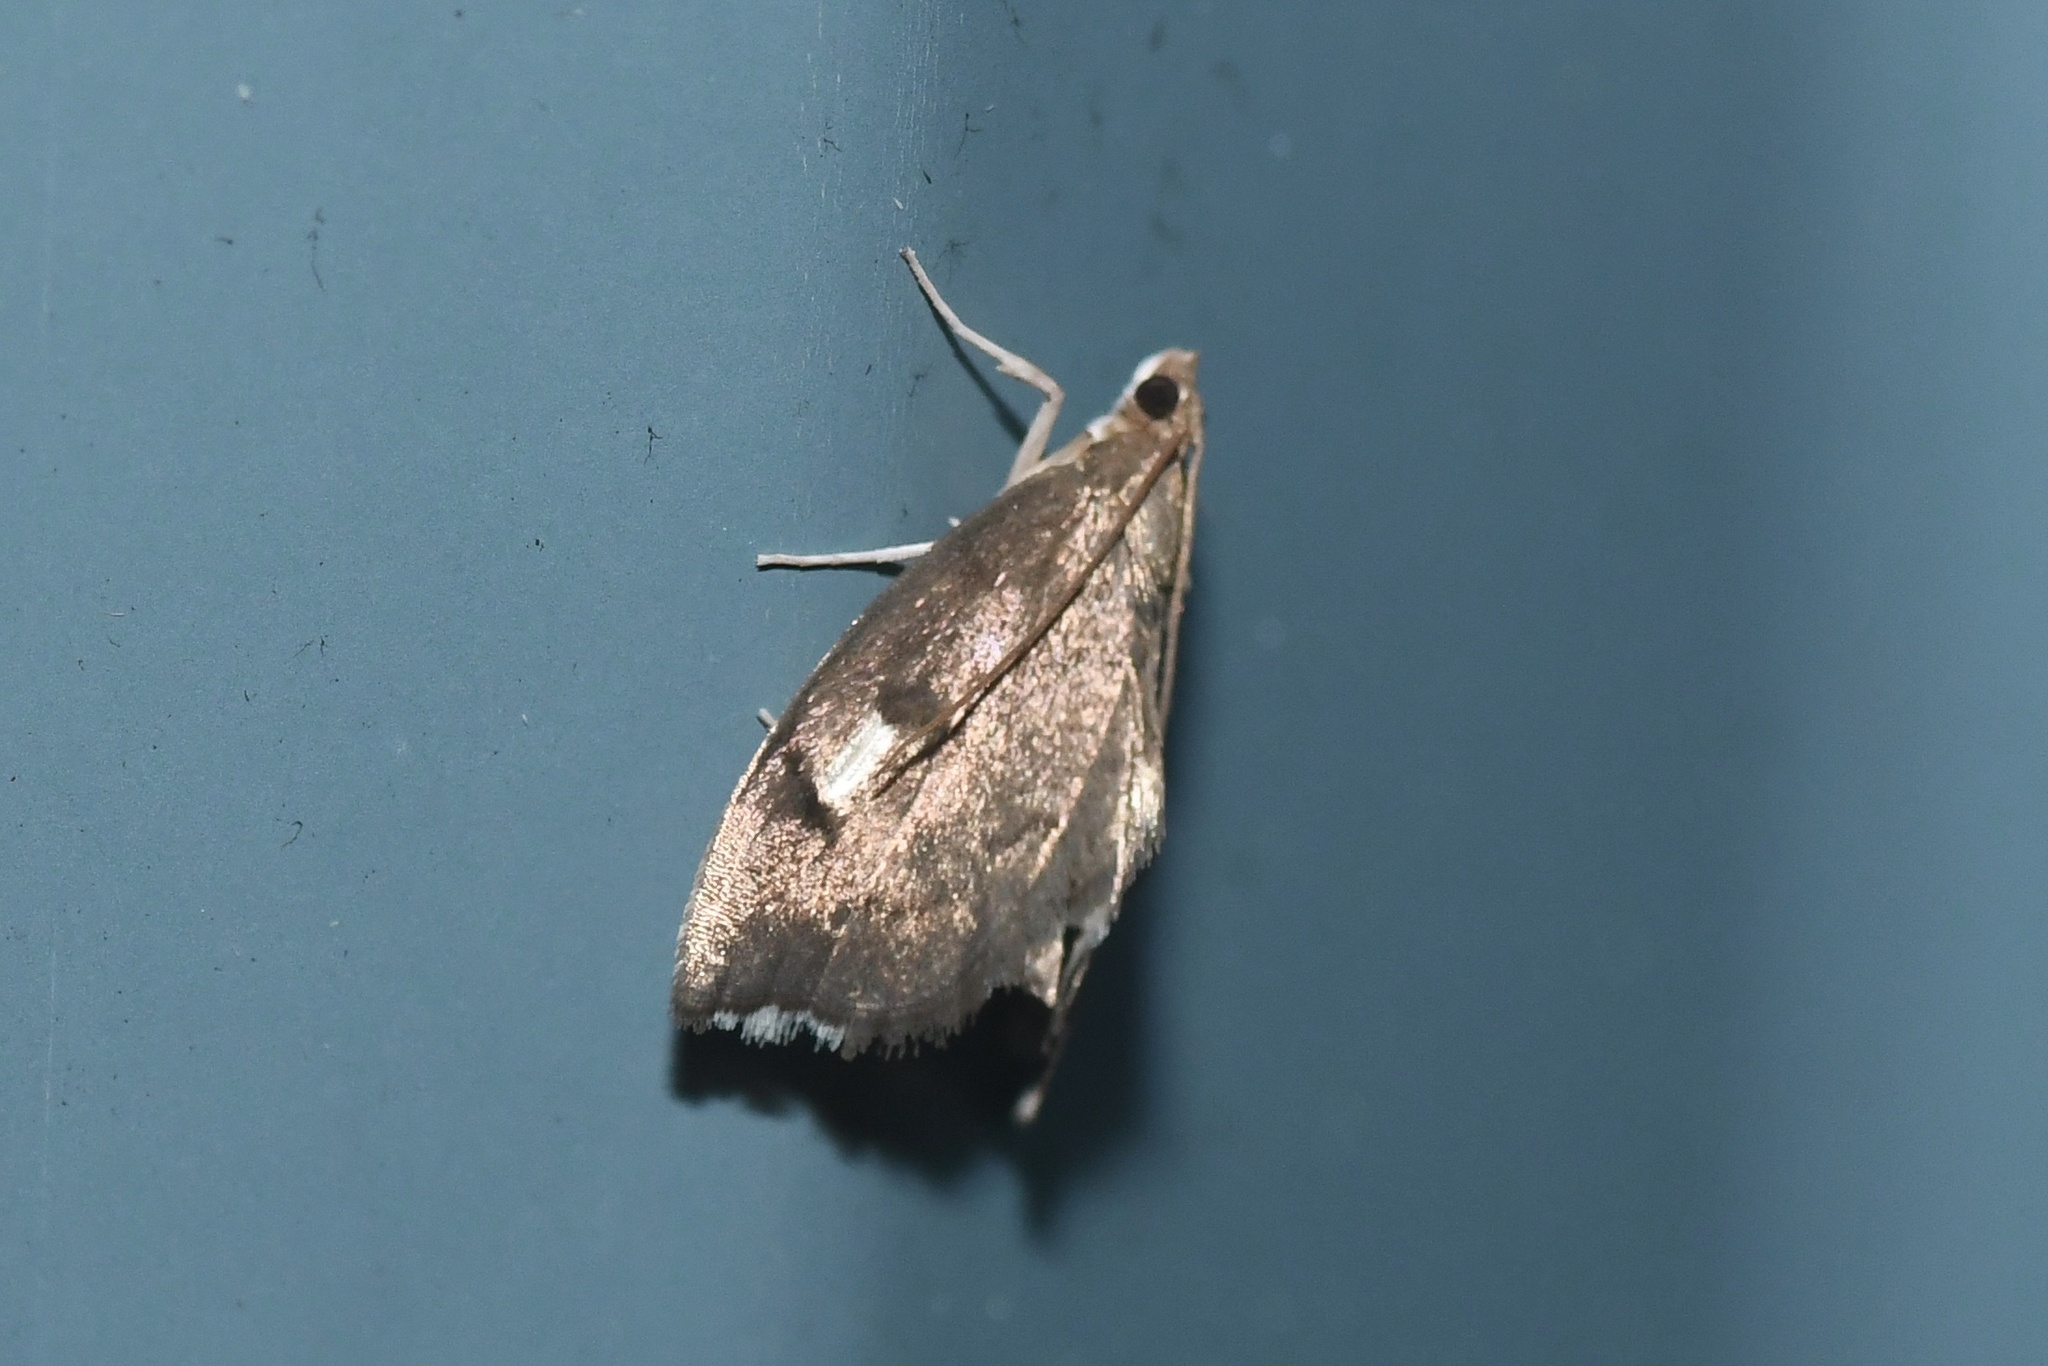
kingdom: Animalia
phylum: Arthropoda
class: Insecta
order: Lepidoptera
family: Crambidae
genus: Perispasta
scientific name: Perispasta caeculalis
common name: Titian peale's moth
